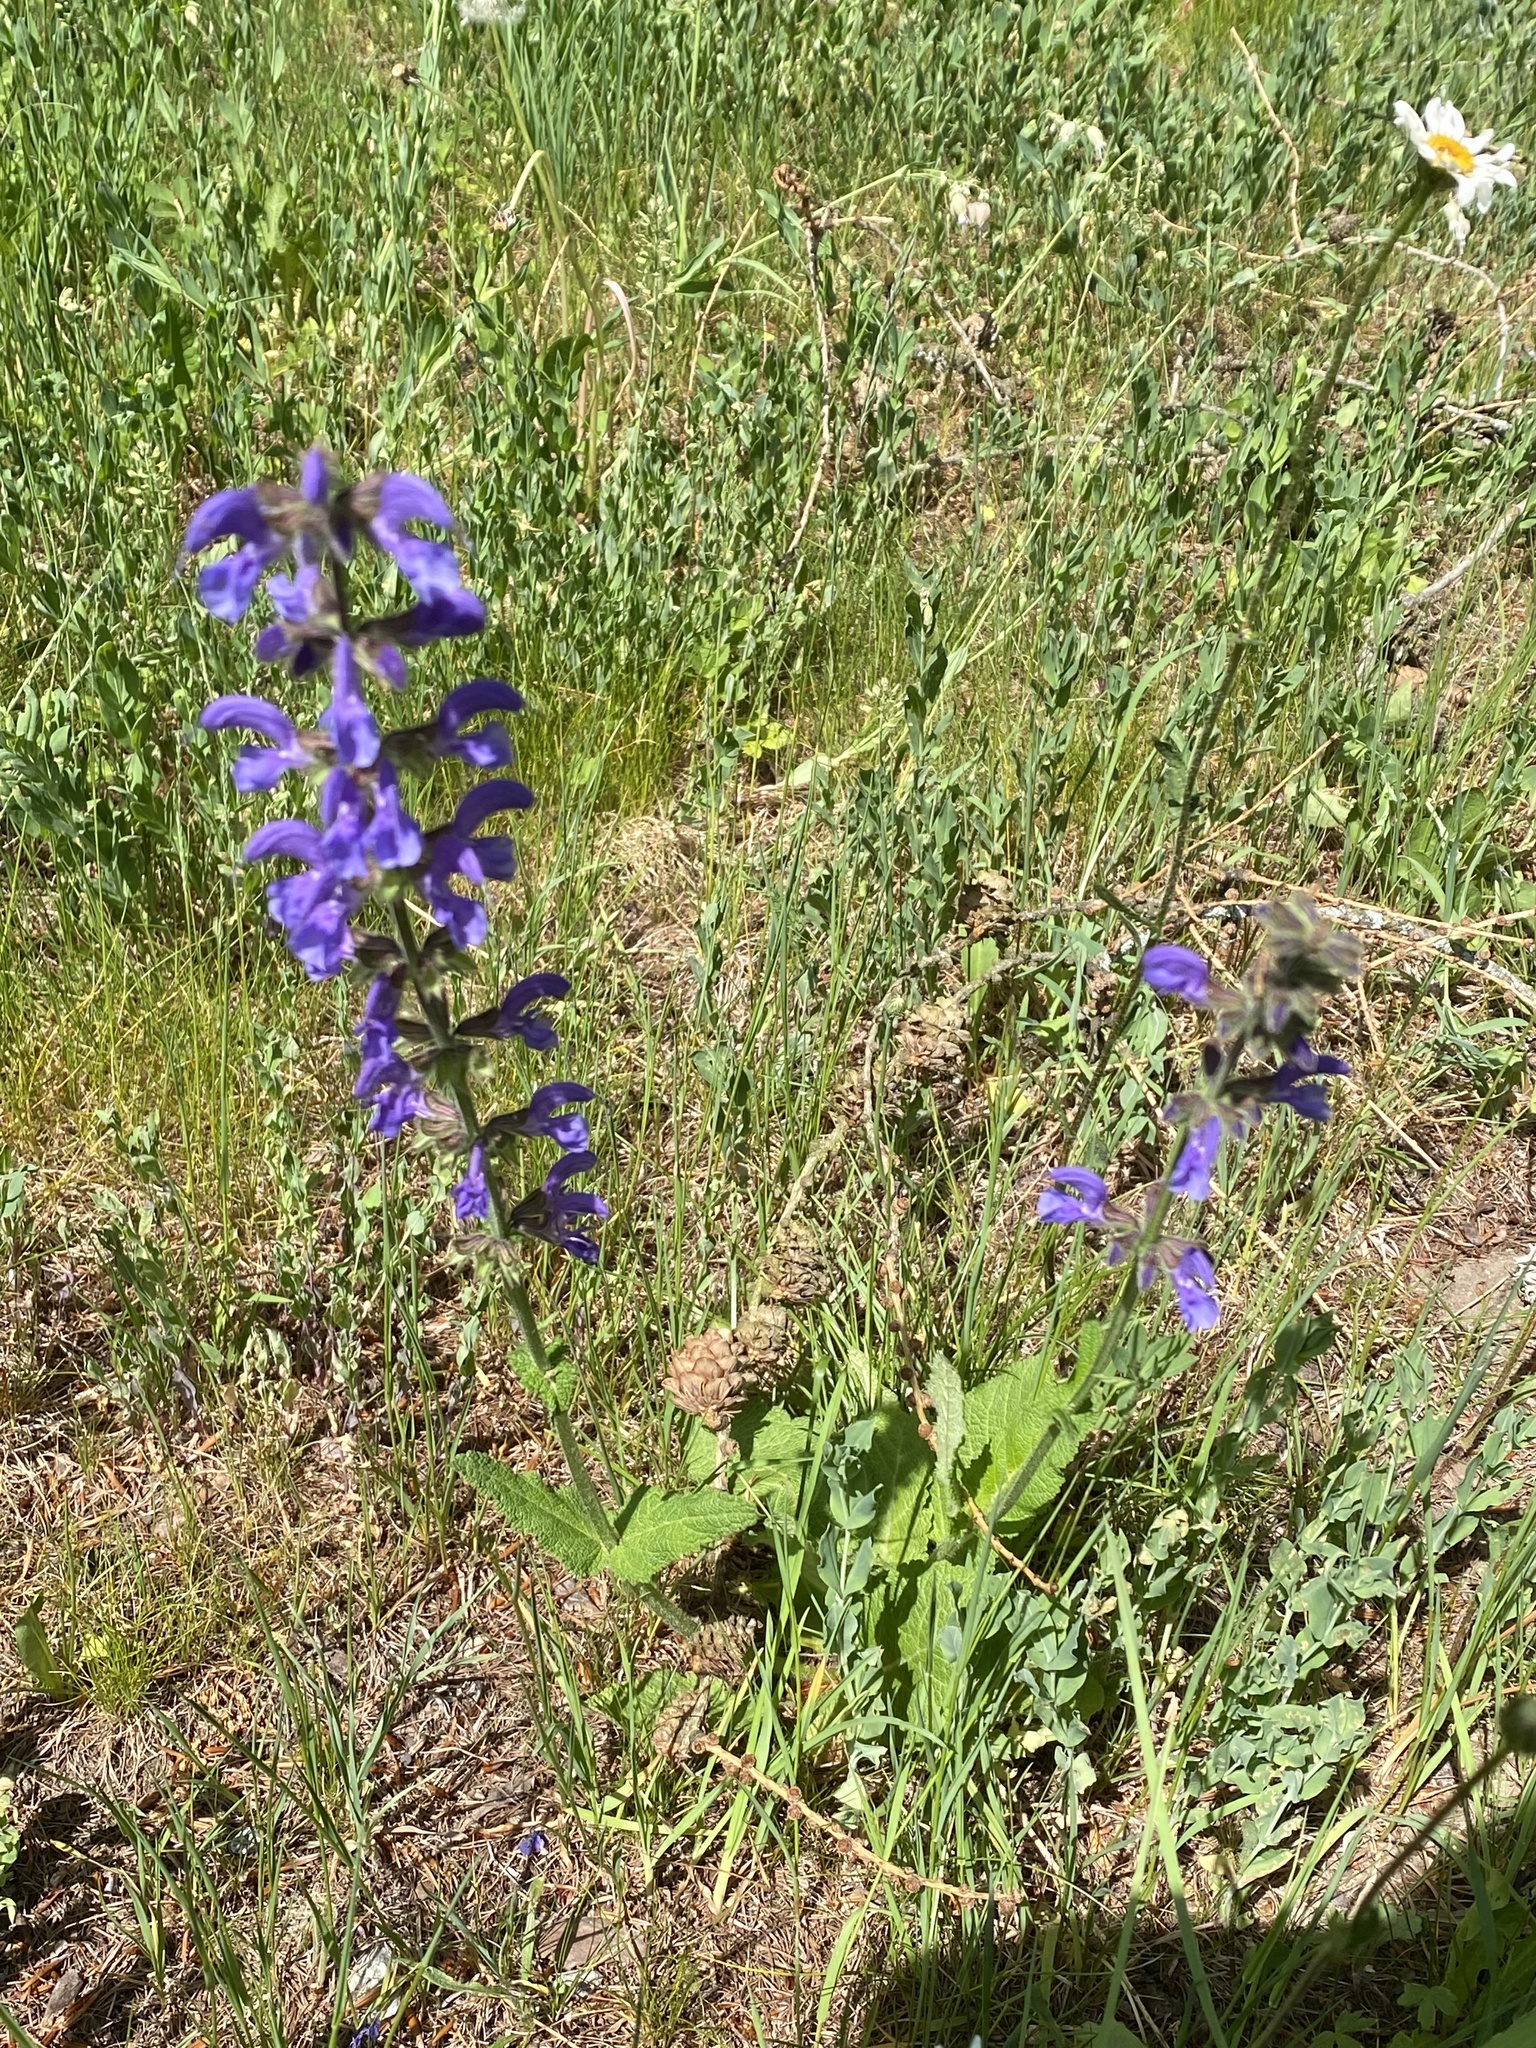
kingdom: Plantae
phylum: Tracheophyta
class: Magnoliopsida
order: Lamiales
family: Lamiaceae
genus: Salvia
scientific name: Salvia pratensis
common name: Meadow sage
